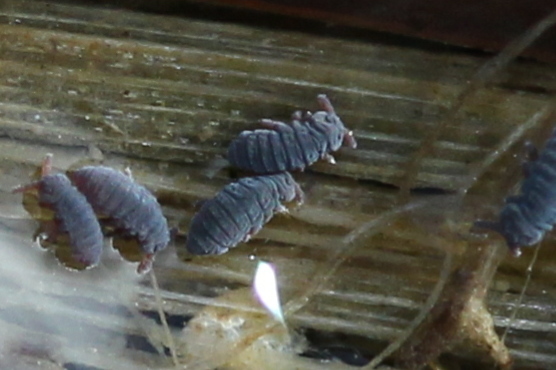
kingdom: Animalia
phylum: Arthropoda
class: Collembola
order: Poduromorpha
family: Poduridae
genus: Podura
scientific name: Podura aquatica
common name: Water springtail
